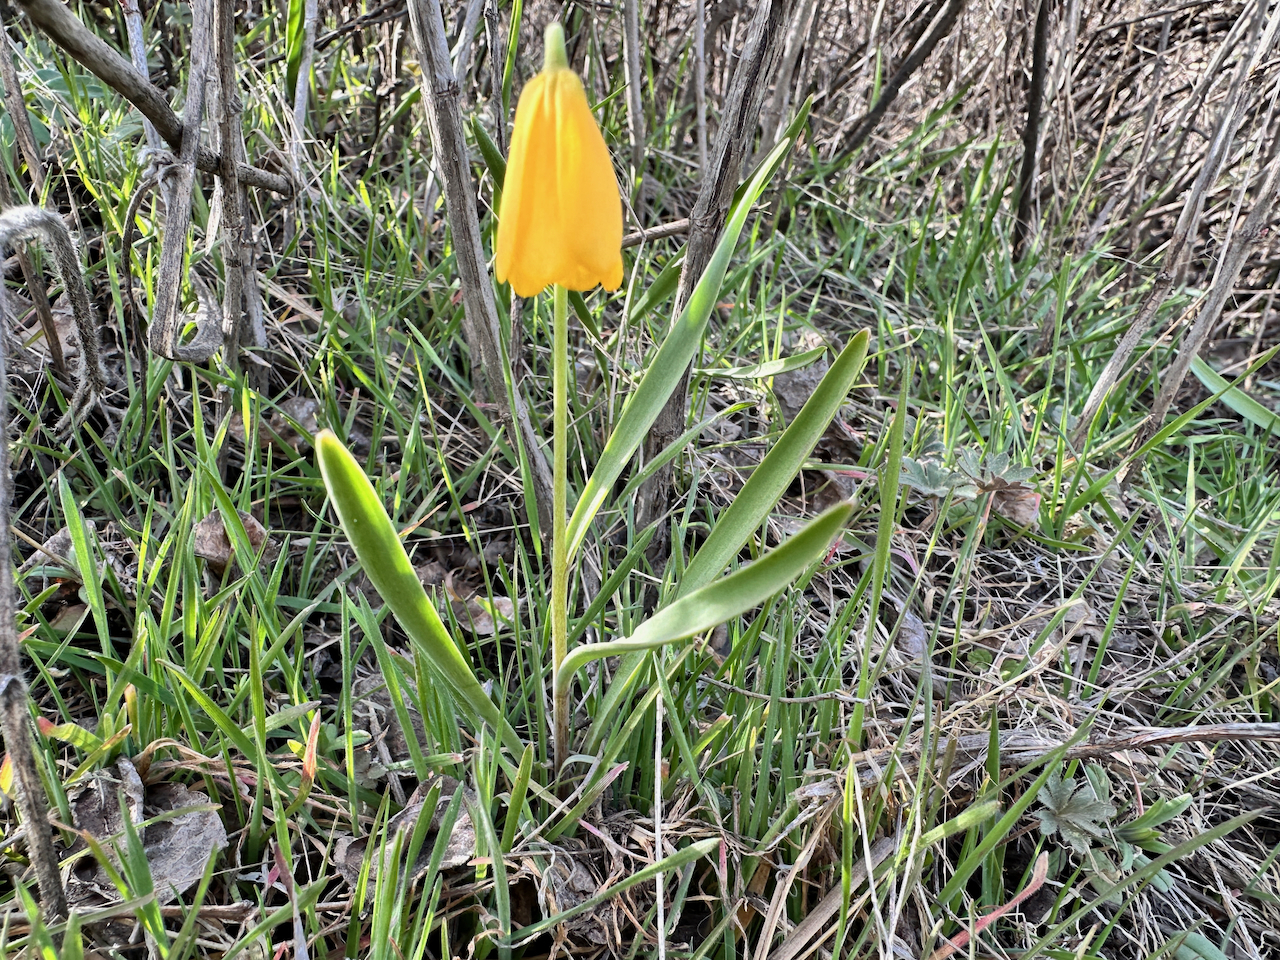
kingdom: Plantae
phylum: Tracheophyta
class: Liliopsida
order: Liliales
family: Liliaceae
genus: Fritillaria
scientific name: Fritillaria pudica
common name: Yellow fritillary
